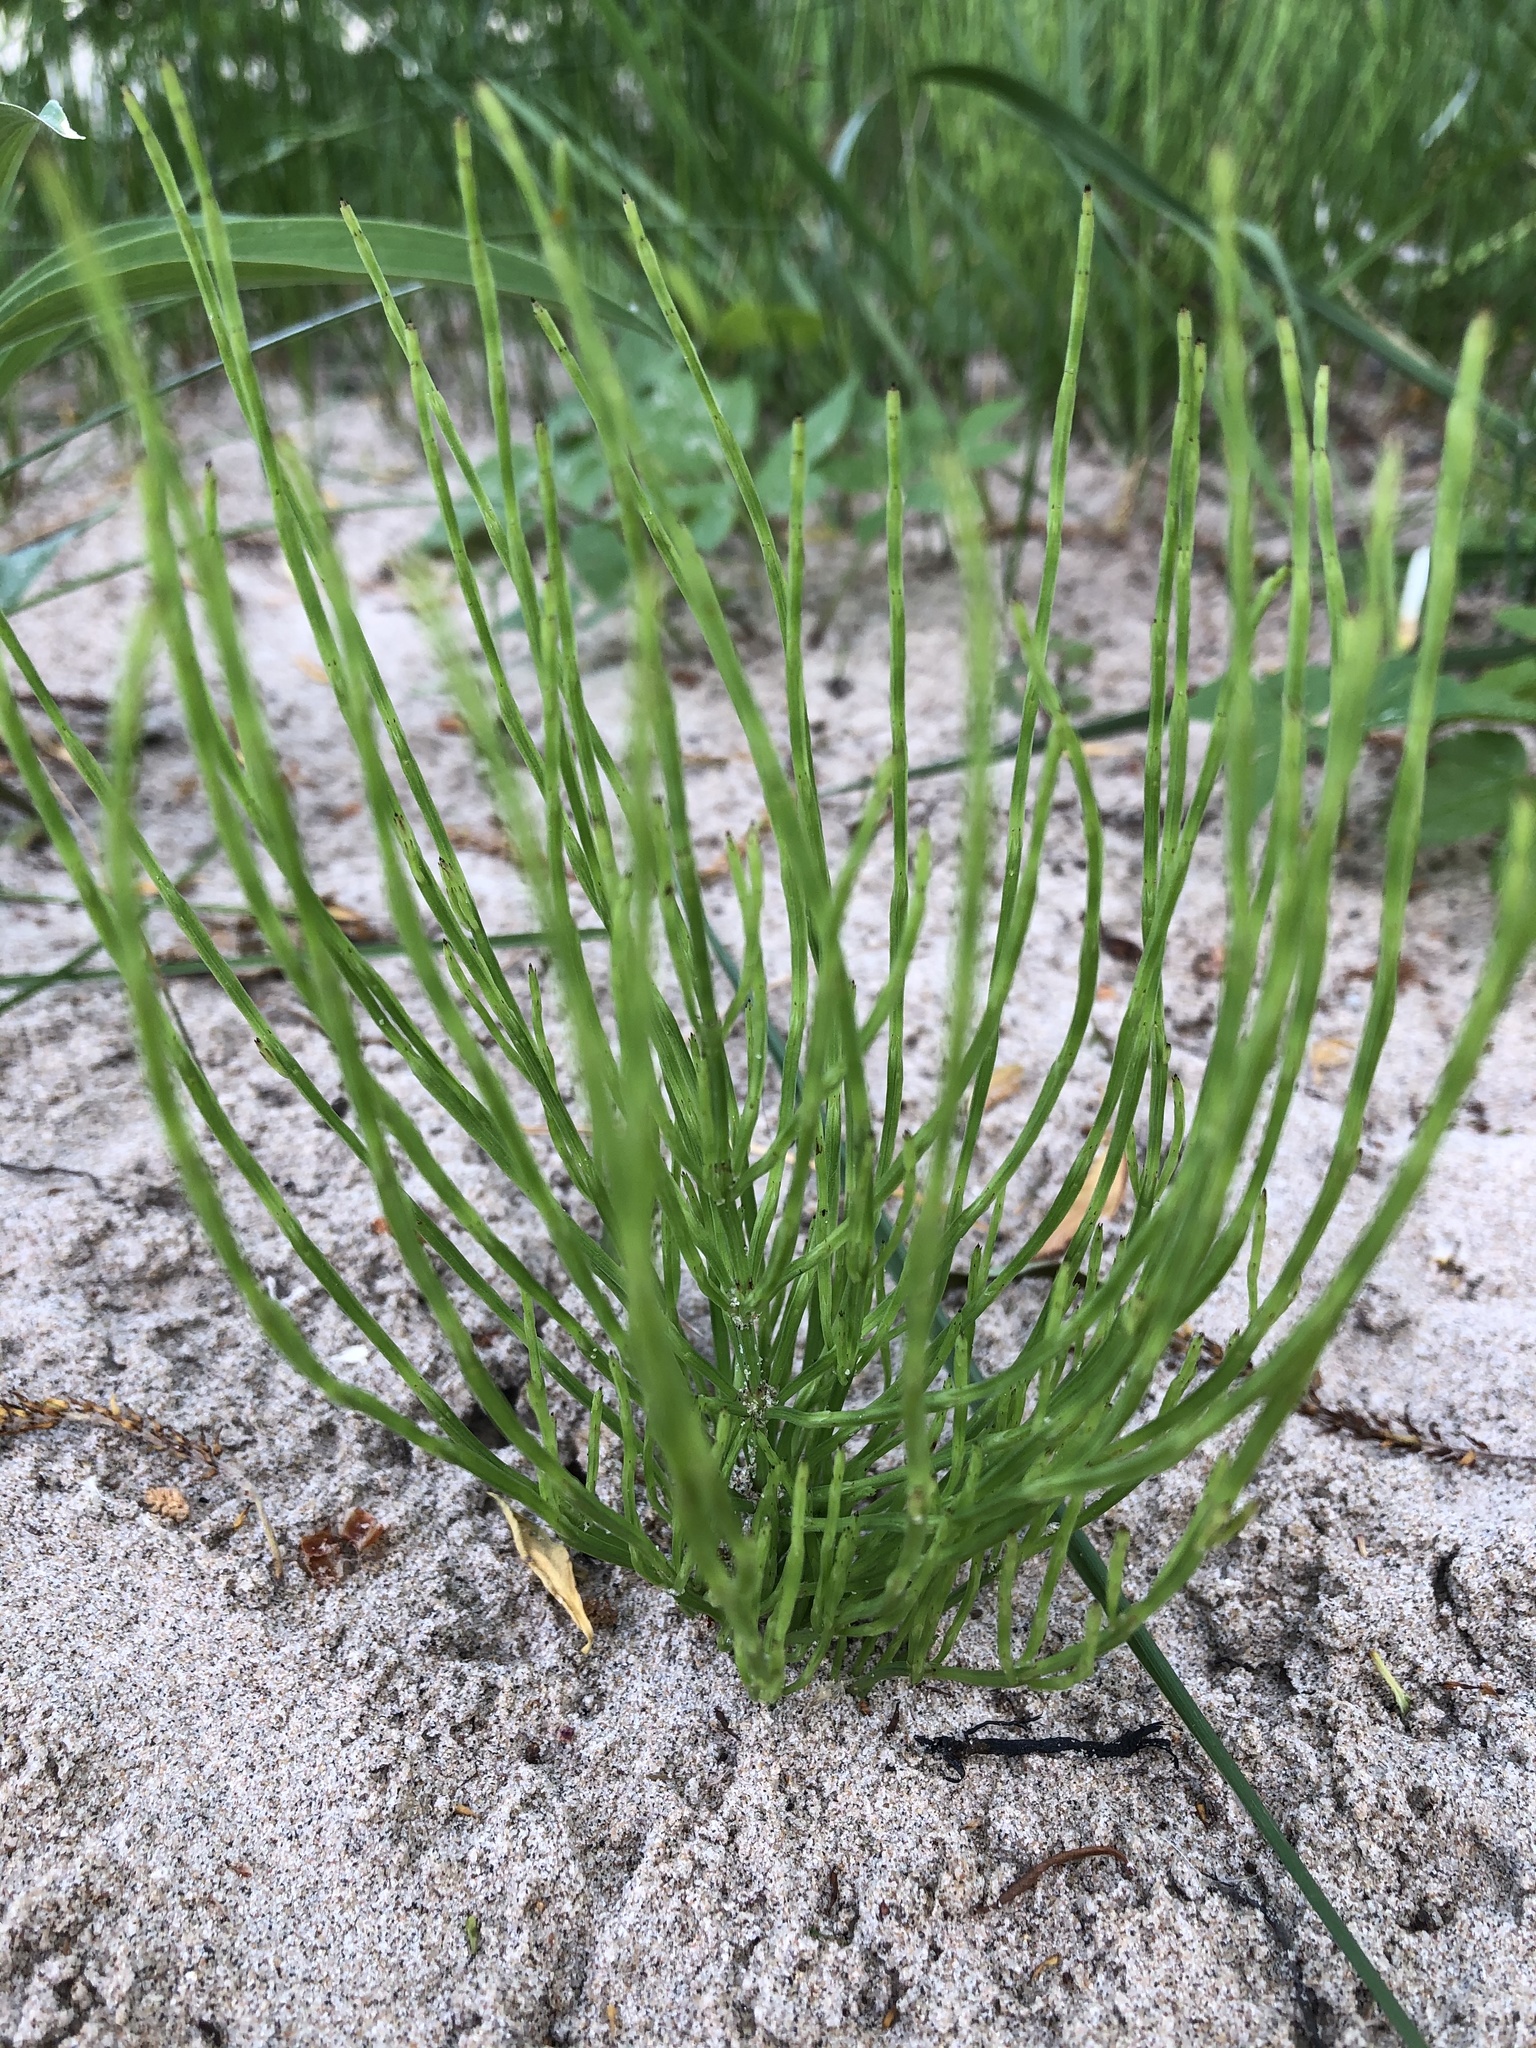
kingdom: Plantae
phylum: Tracheophyta
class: Polypodiopsida
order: Equisetales
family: Equisetaceae
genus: Equisetum
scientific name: Equisetum arvense
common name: Field horsetail
